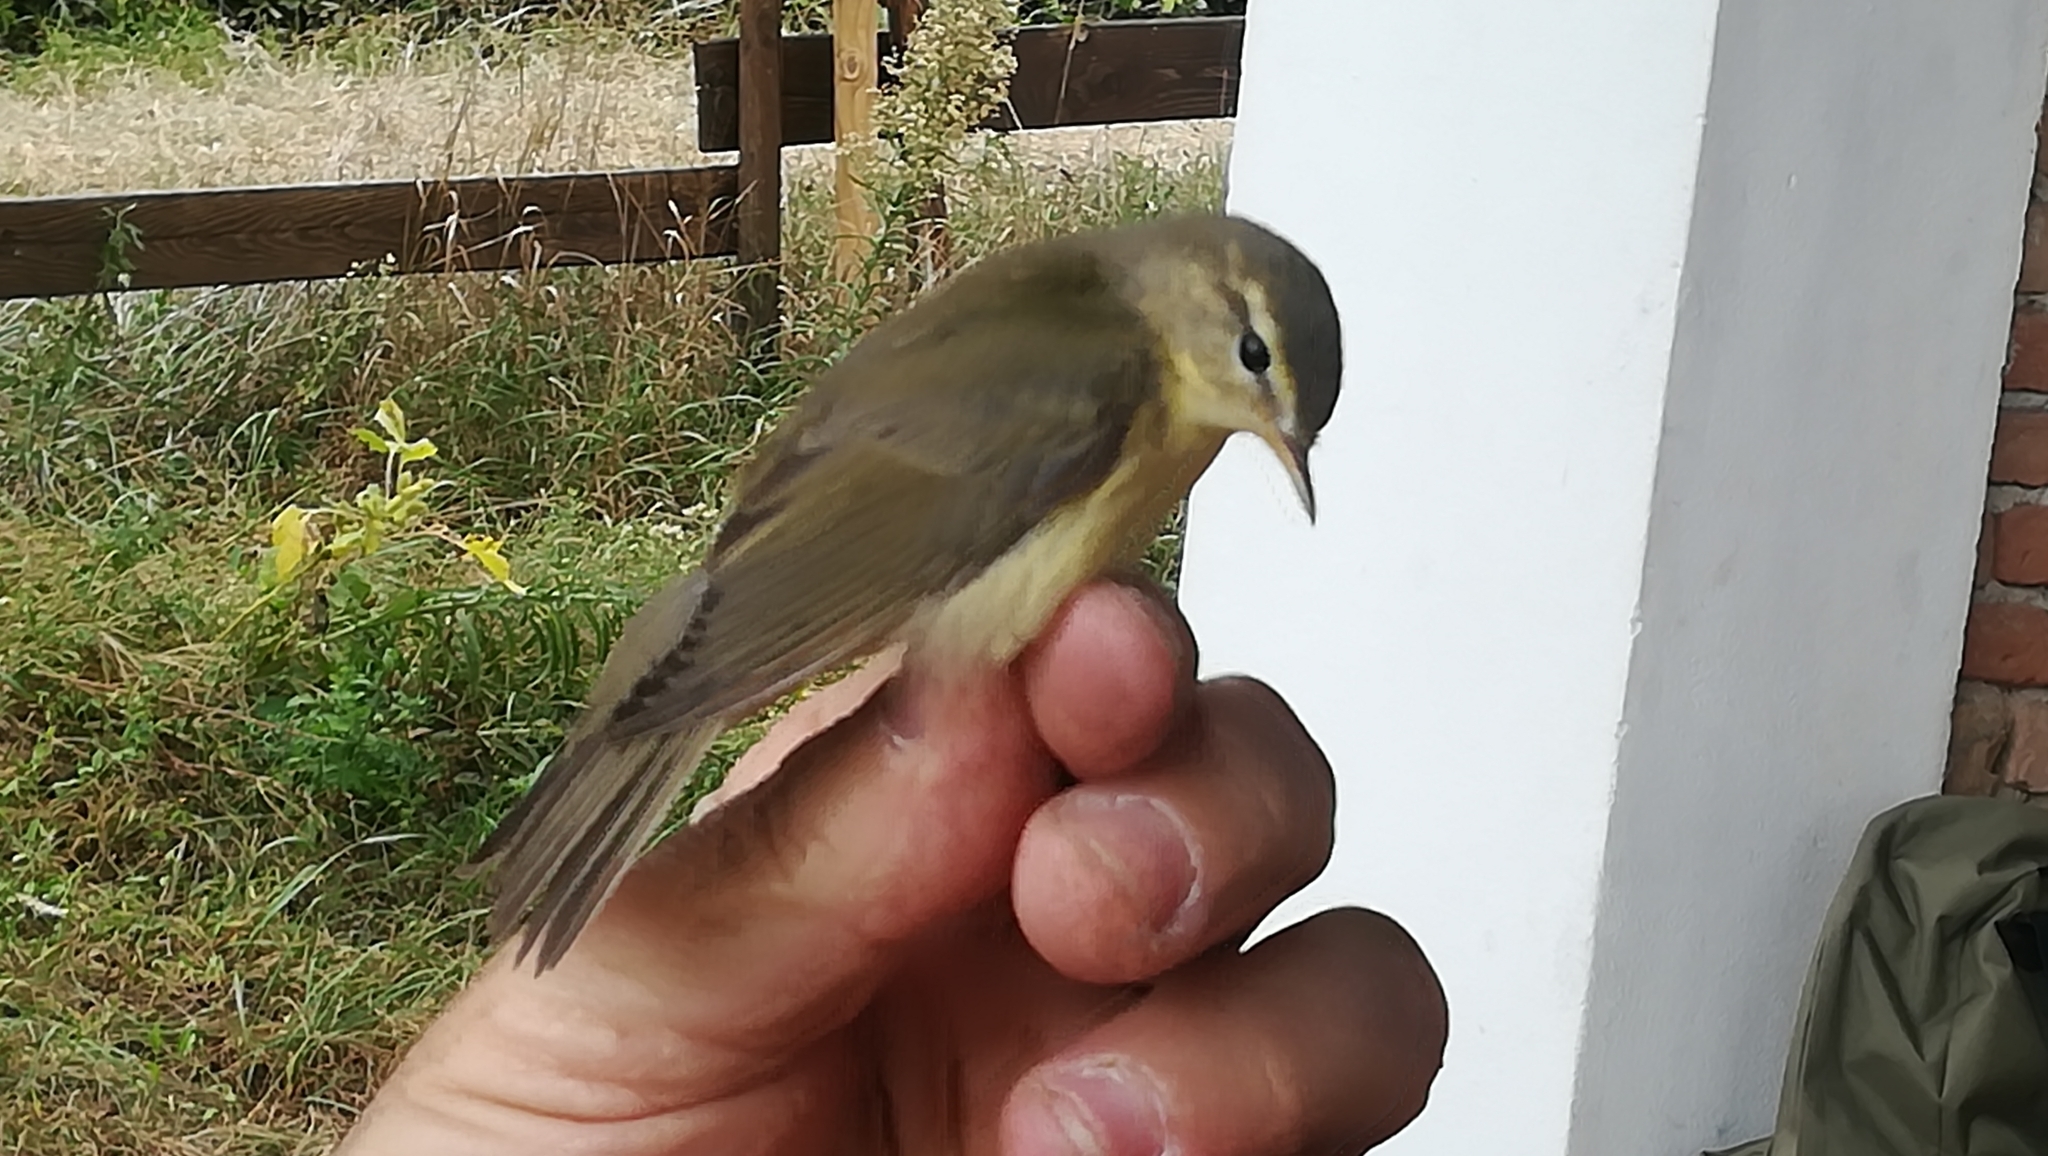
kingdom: Animalia
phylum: Chordata
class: Aves
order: Passeriformes
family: Phylloscopidae
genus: Phylloscopus
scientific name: Phylloscopus trochilus
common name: Willow warbler
